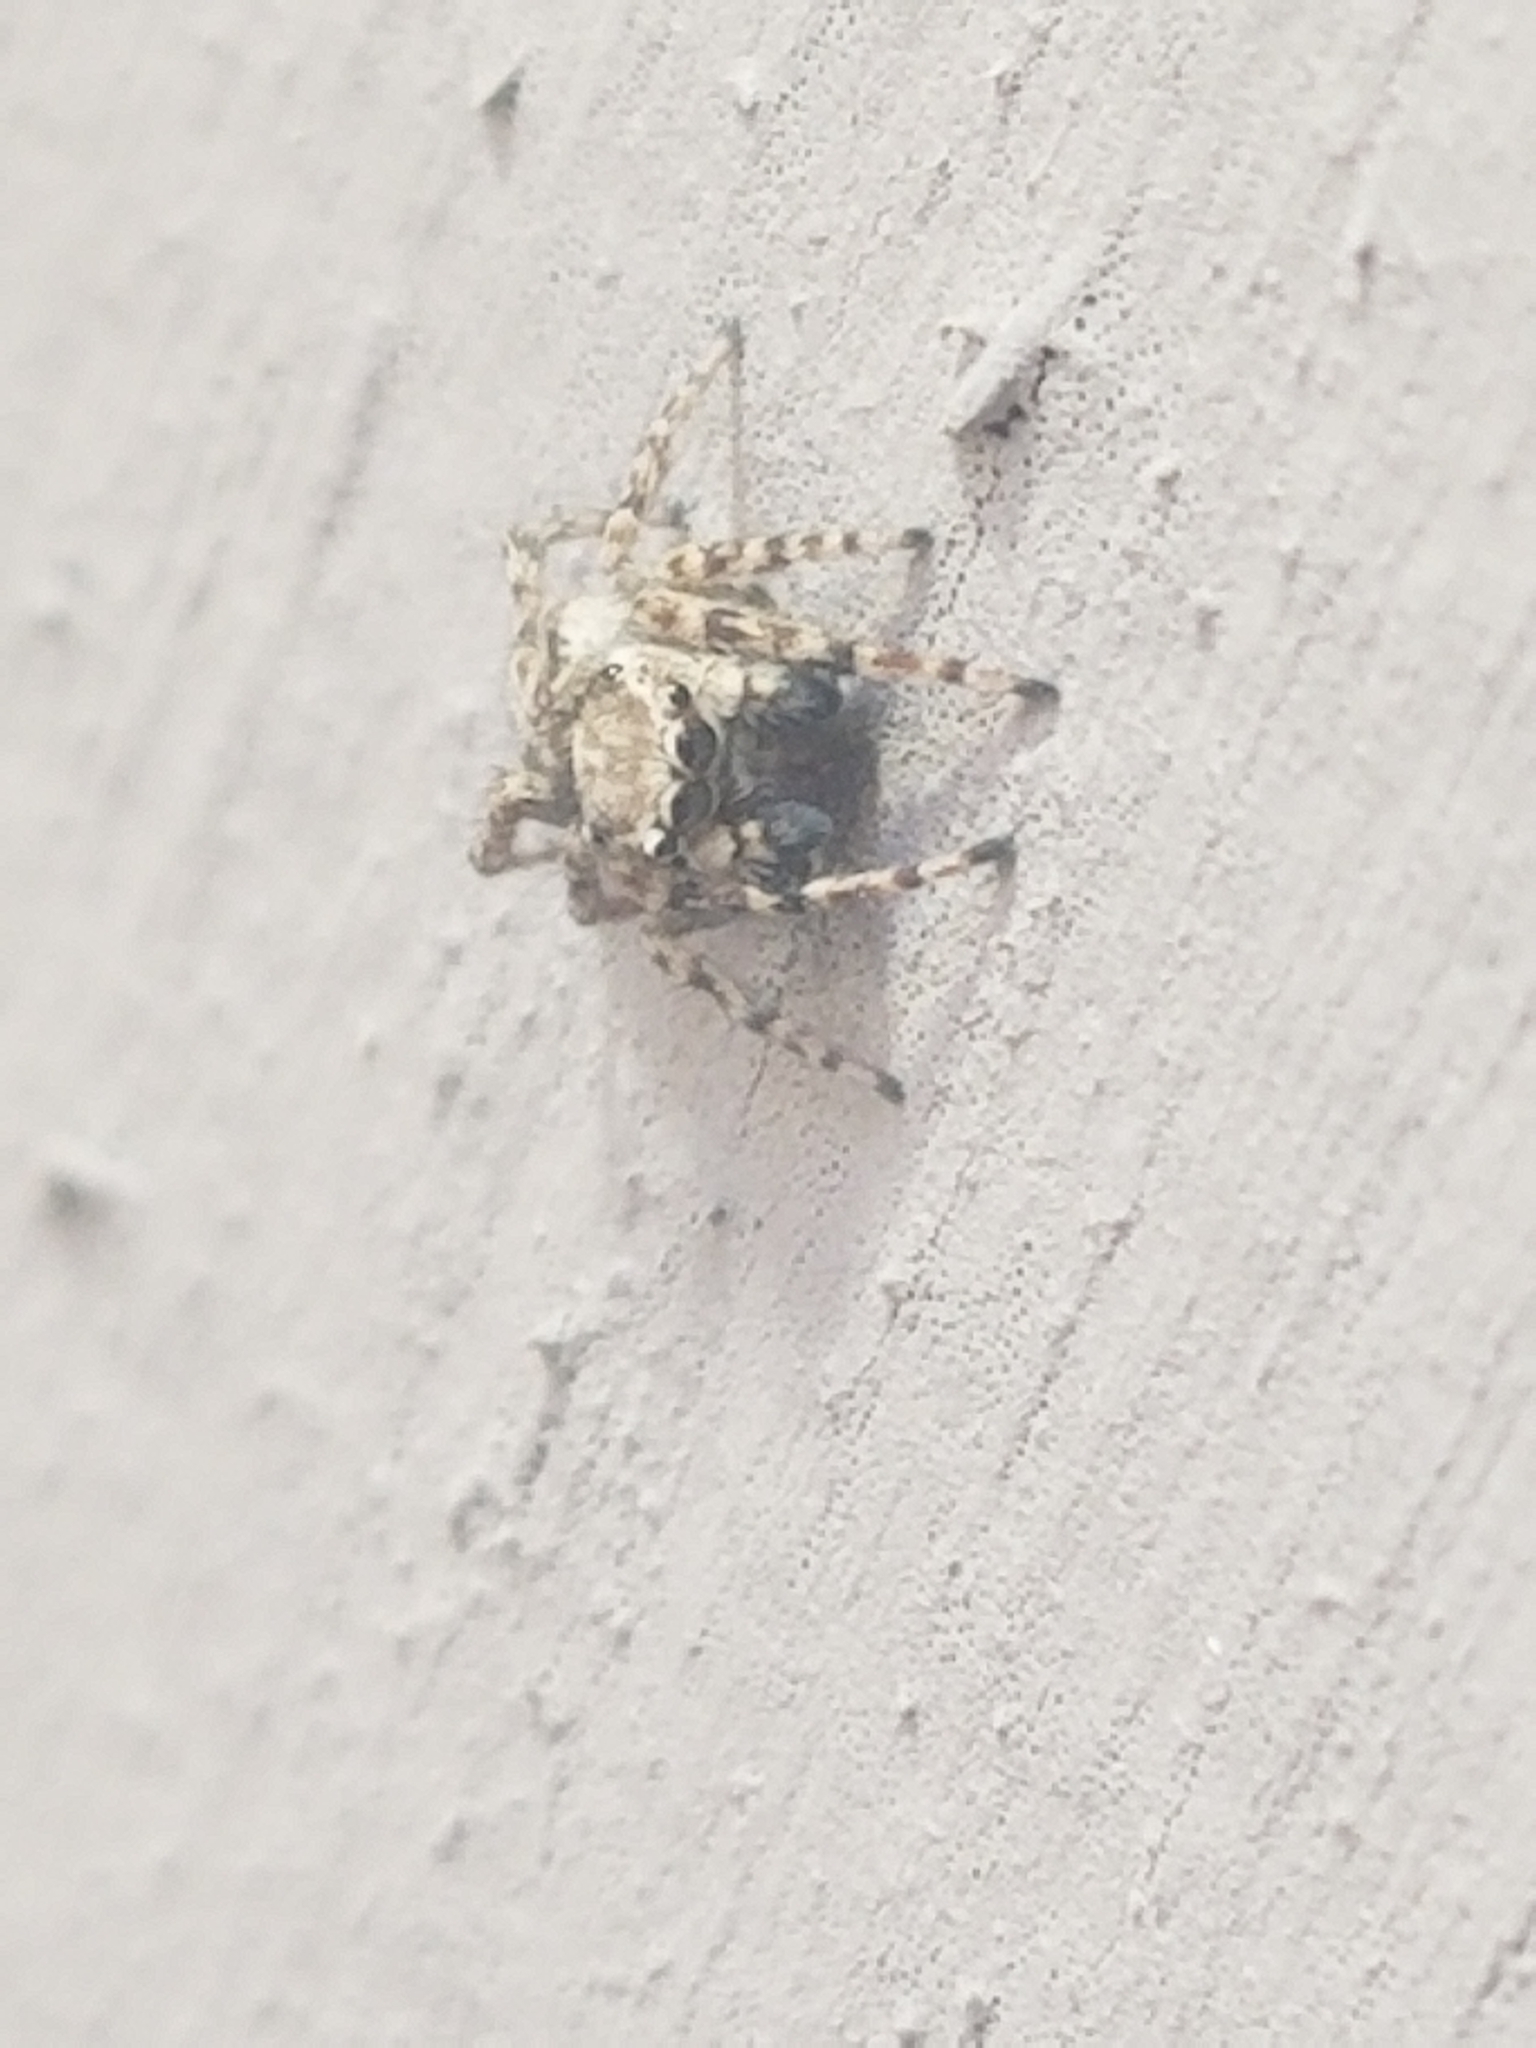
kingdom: Animalia
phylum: Arthropoda
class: Arachnida
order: Araneae
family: Salticidae
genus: Attulus
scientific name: Attulus ammophilus
